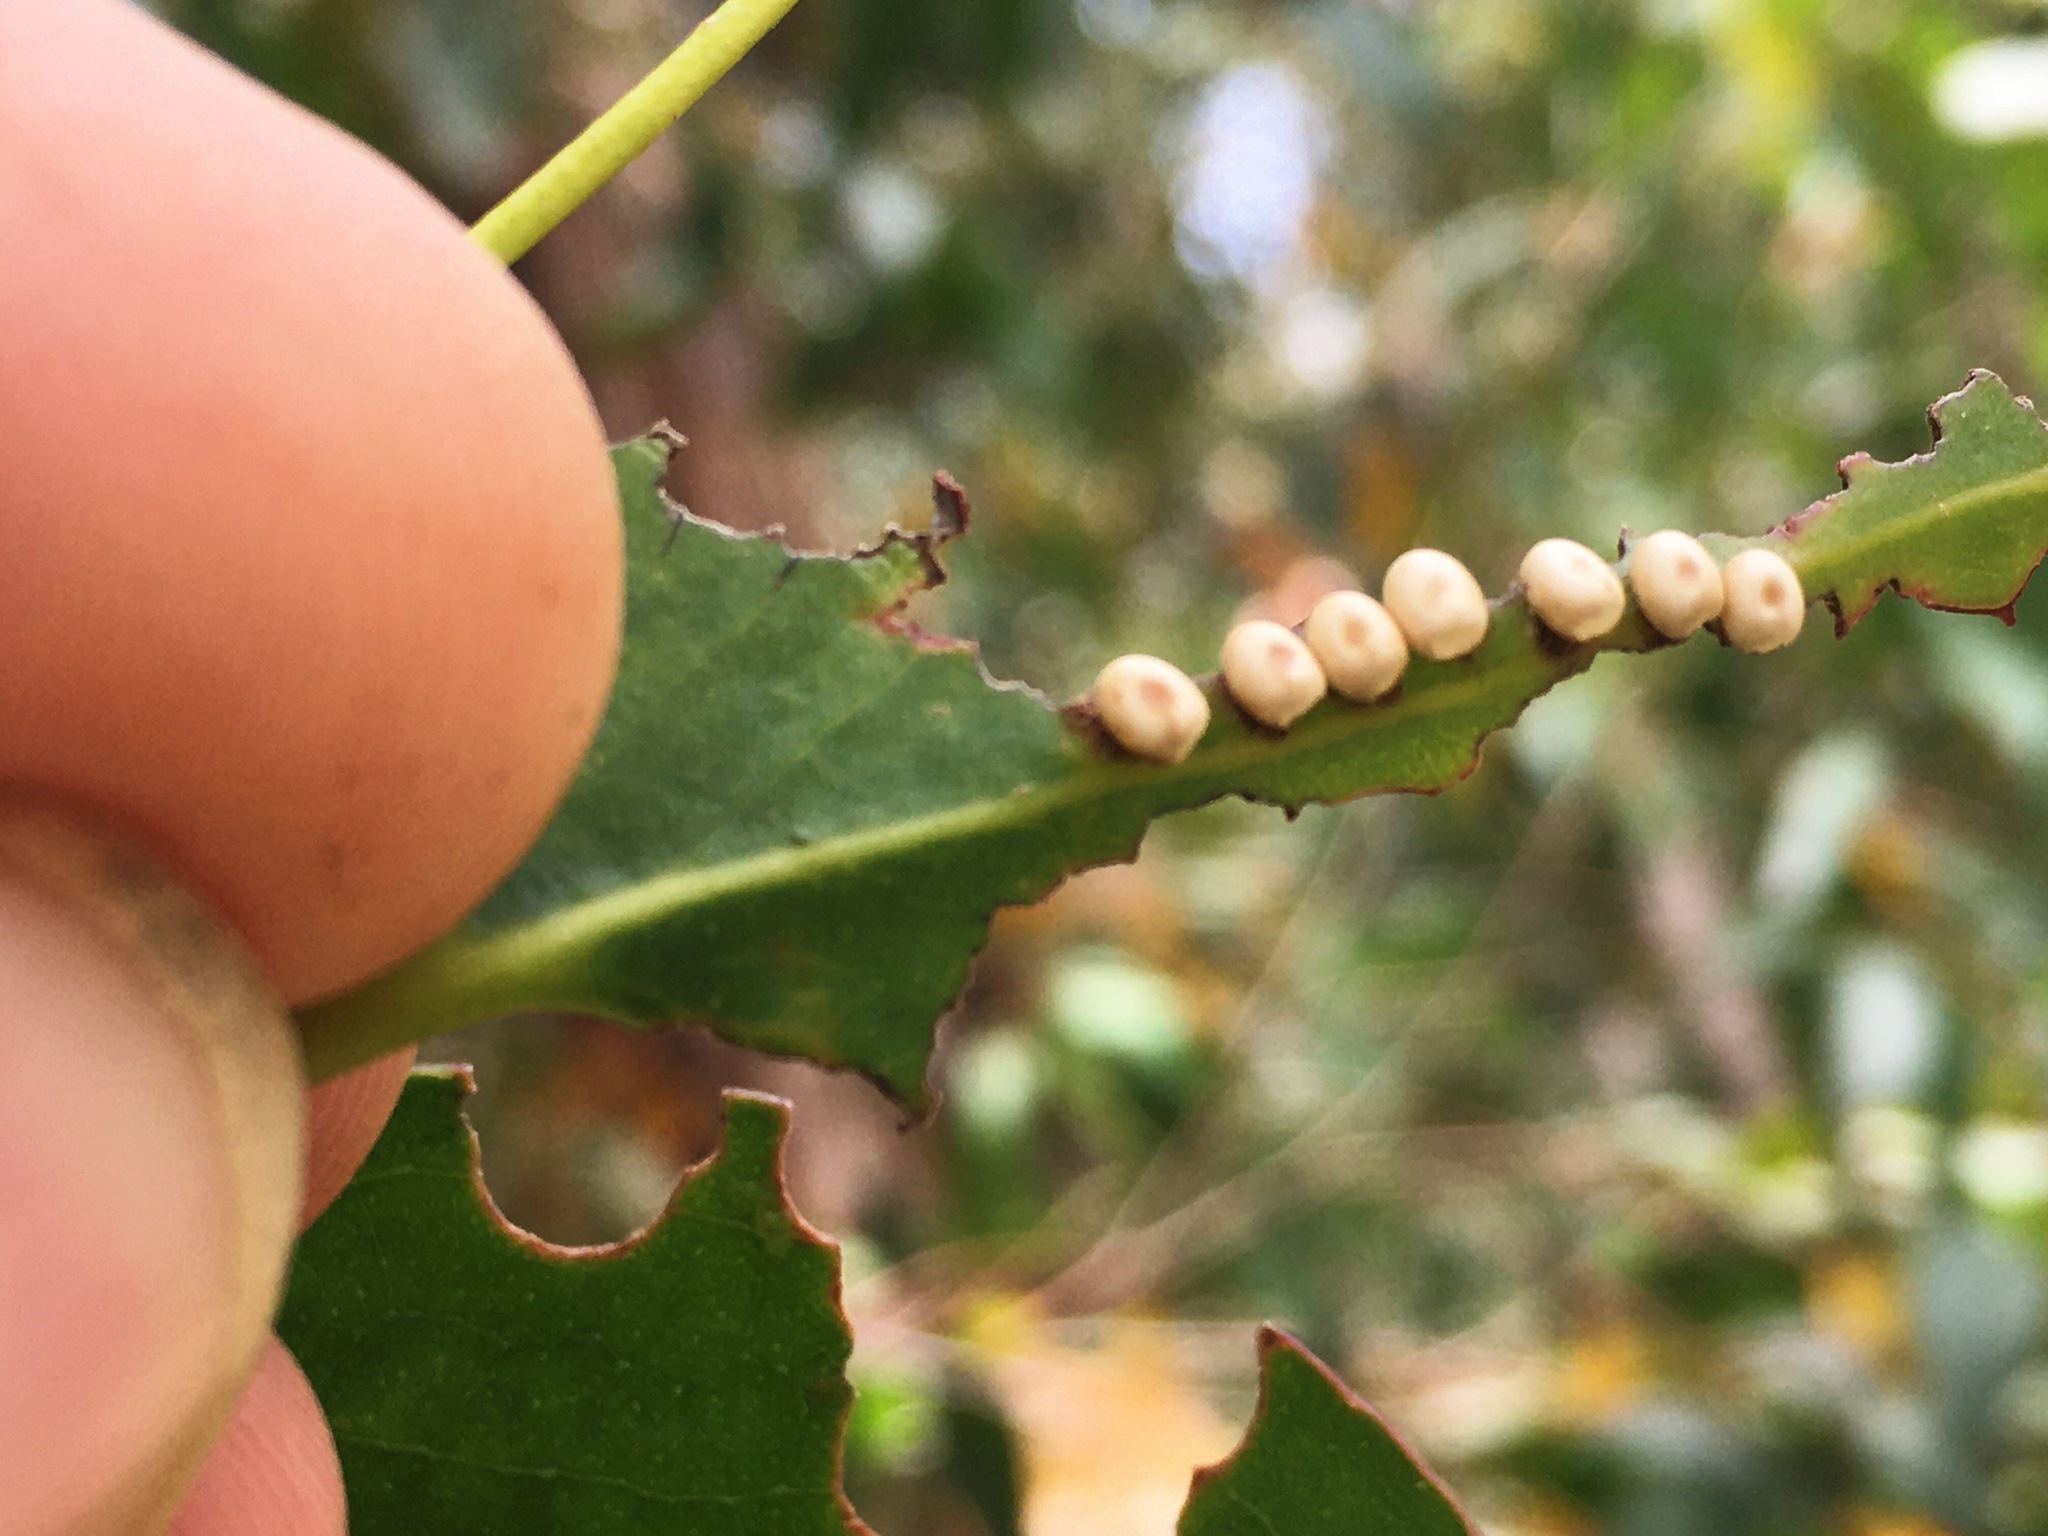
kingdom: Animalia
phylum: Arthropoda
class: Insecta
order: Lepidoptera
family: Saturniidae
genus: Opodiphthera
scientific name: Opodiphthera
